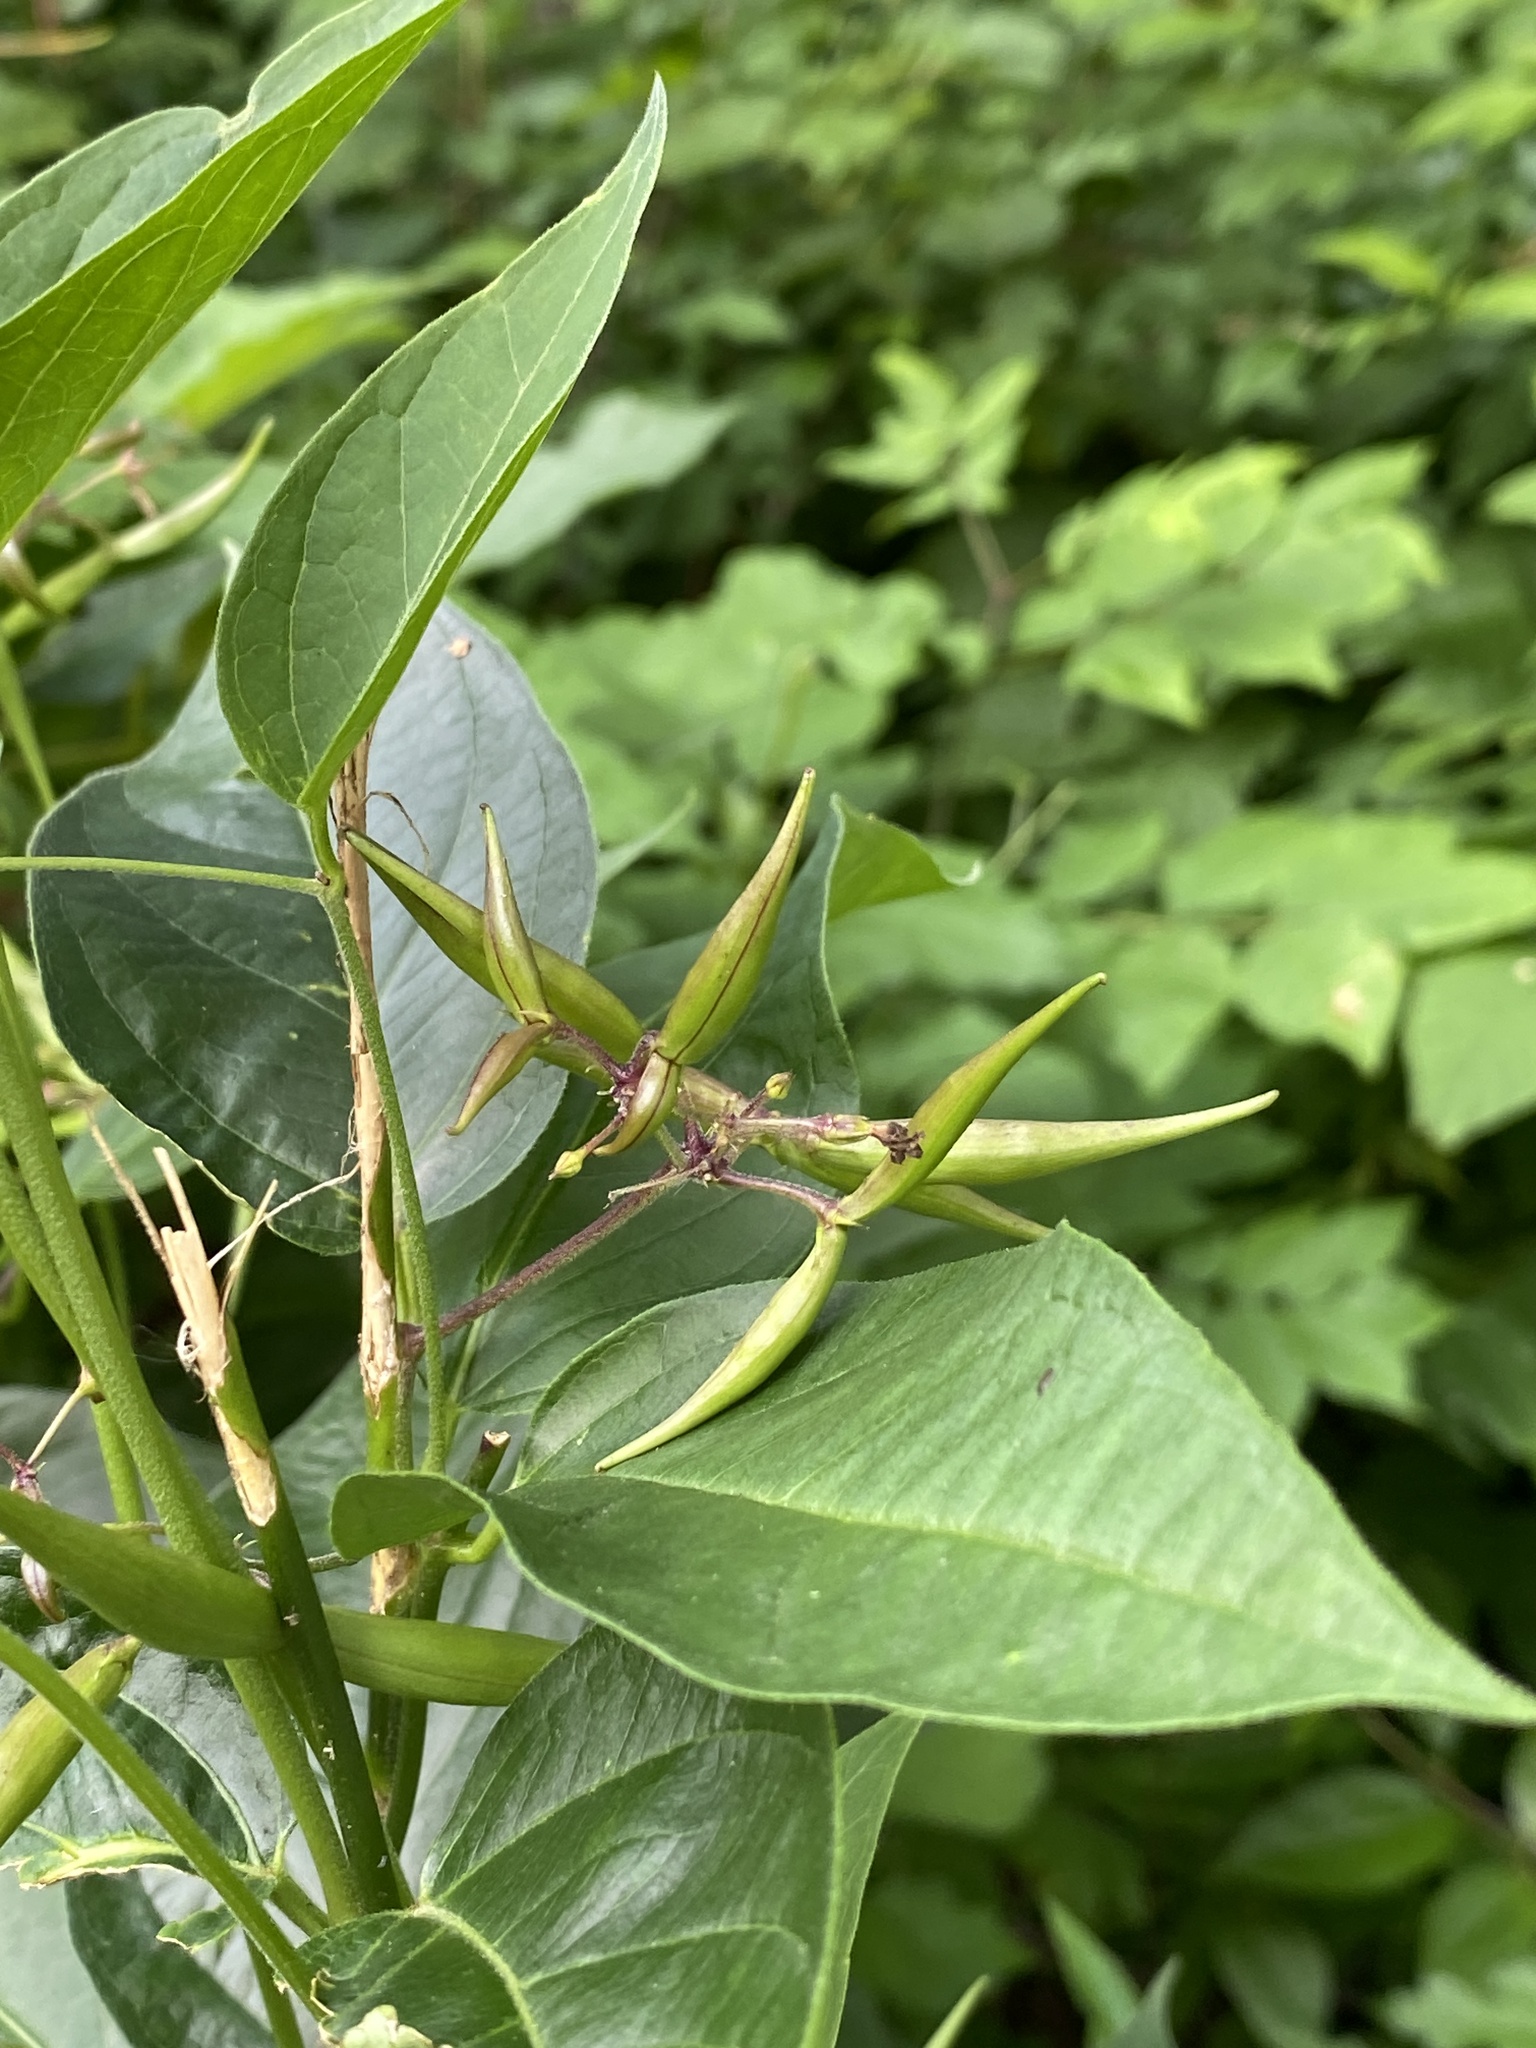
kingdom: Plantae
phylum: Tracheophyta
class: Magnoliopsida
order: Gentianales
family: Apocynaceae
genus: Vincetoxicum
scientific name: Vincetoxicum rossicum
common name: Dog-strangling vine
